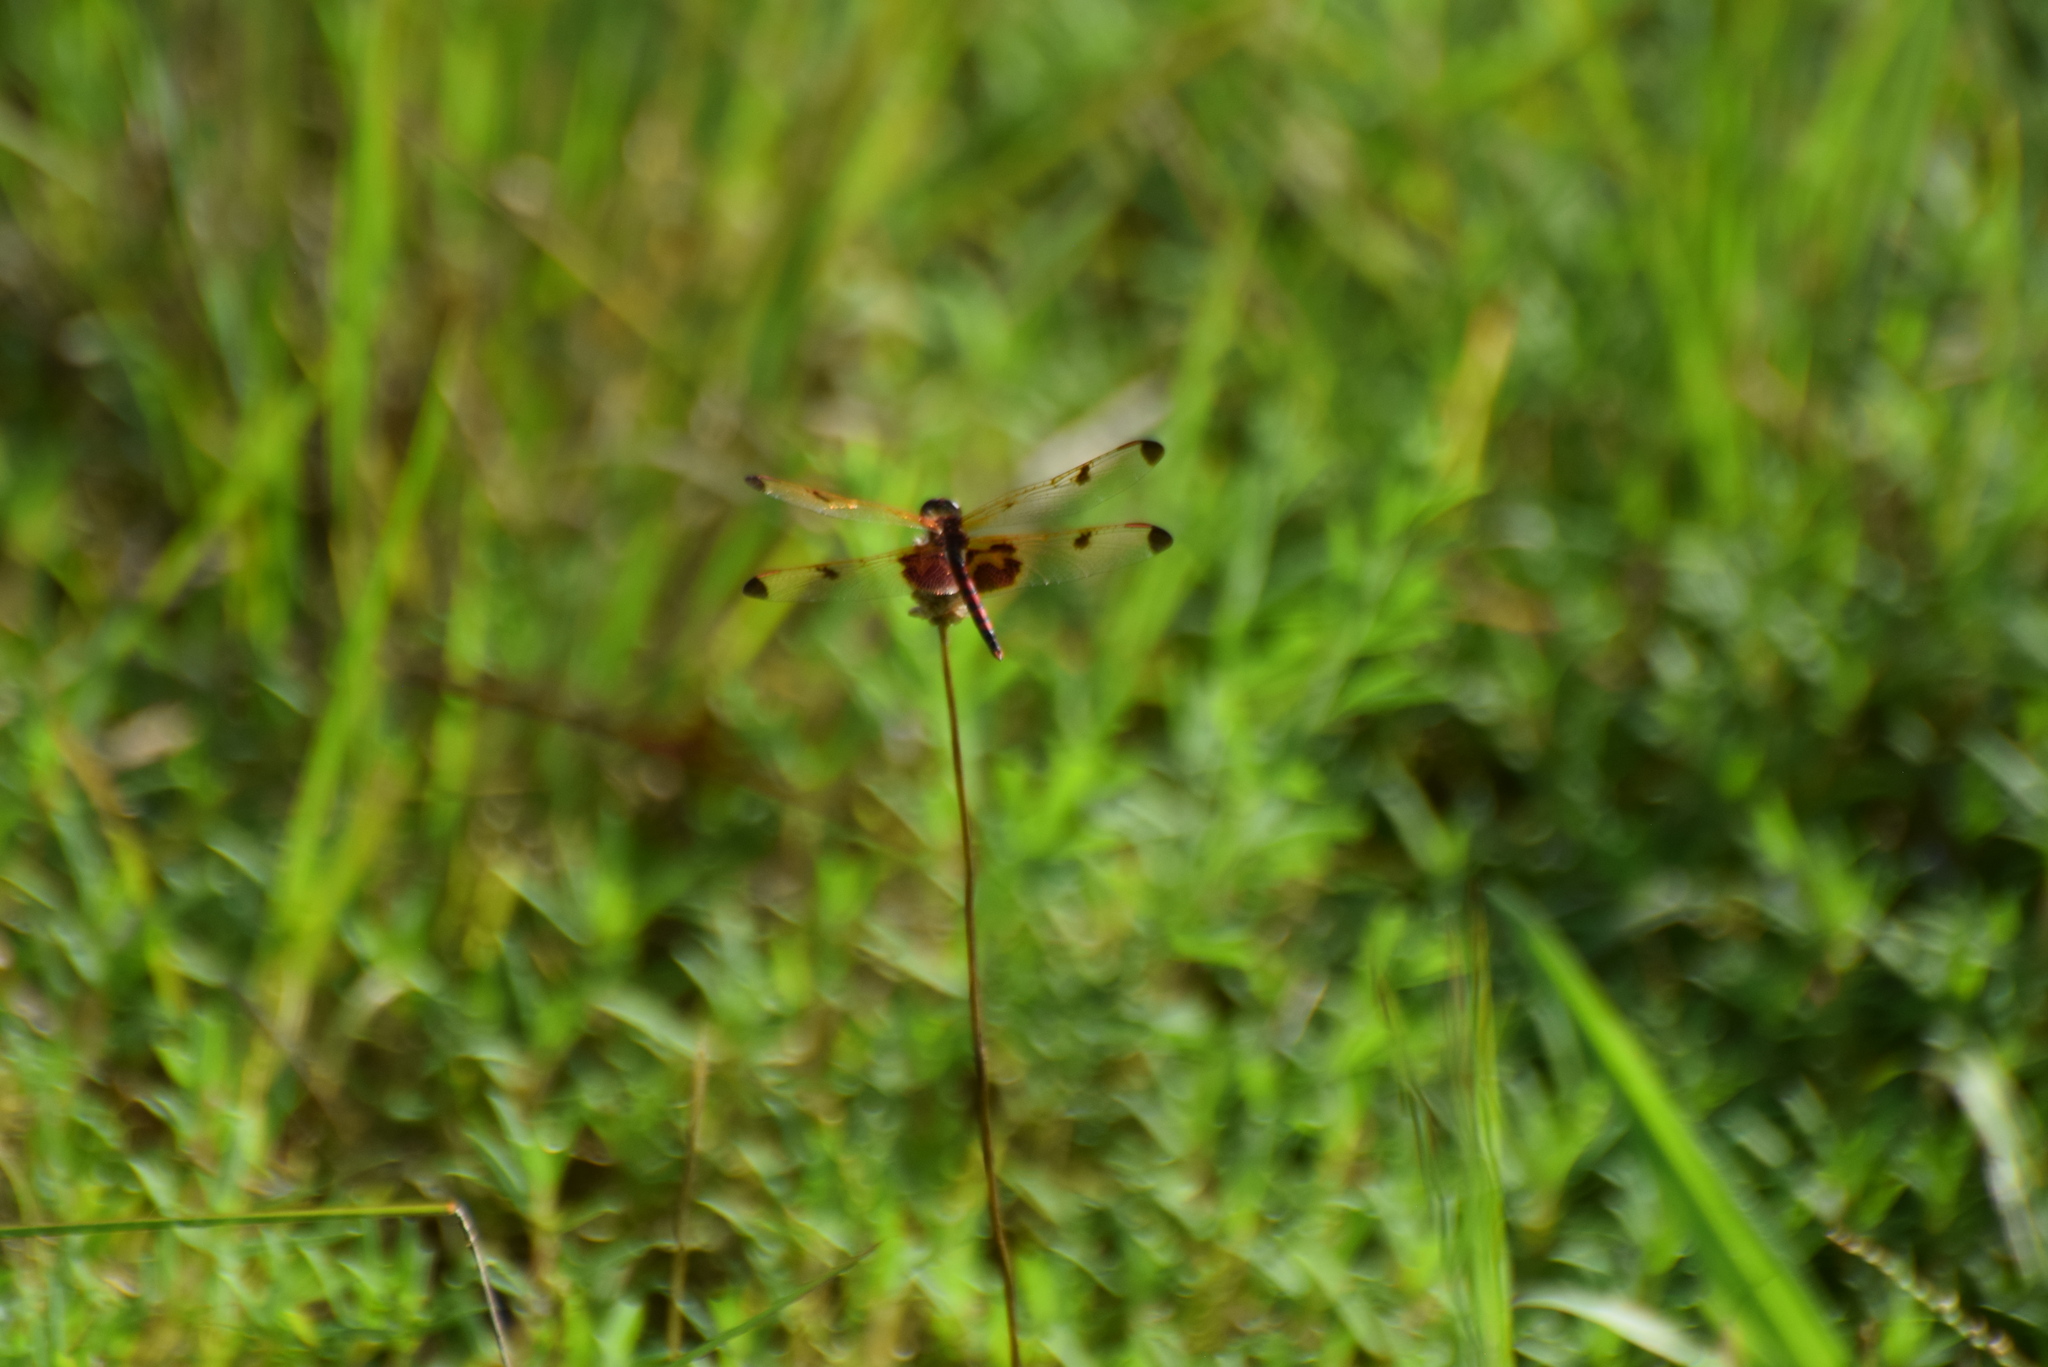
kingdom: Animalia
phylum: Arthropoda
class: Insecta
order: Odonata
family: Libellulidae
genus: Celithemis
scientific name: Celithemis elisa
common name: Calico pennant
